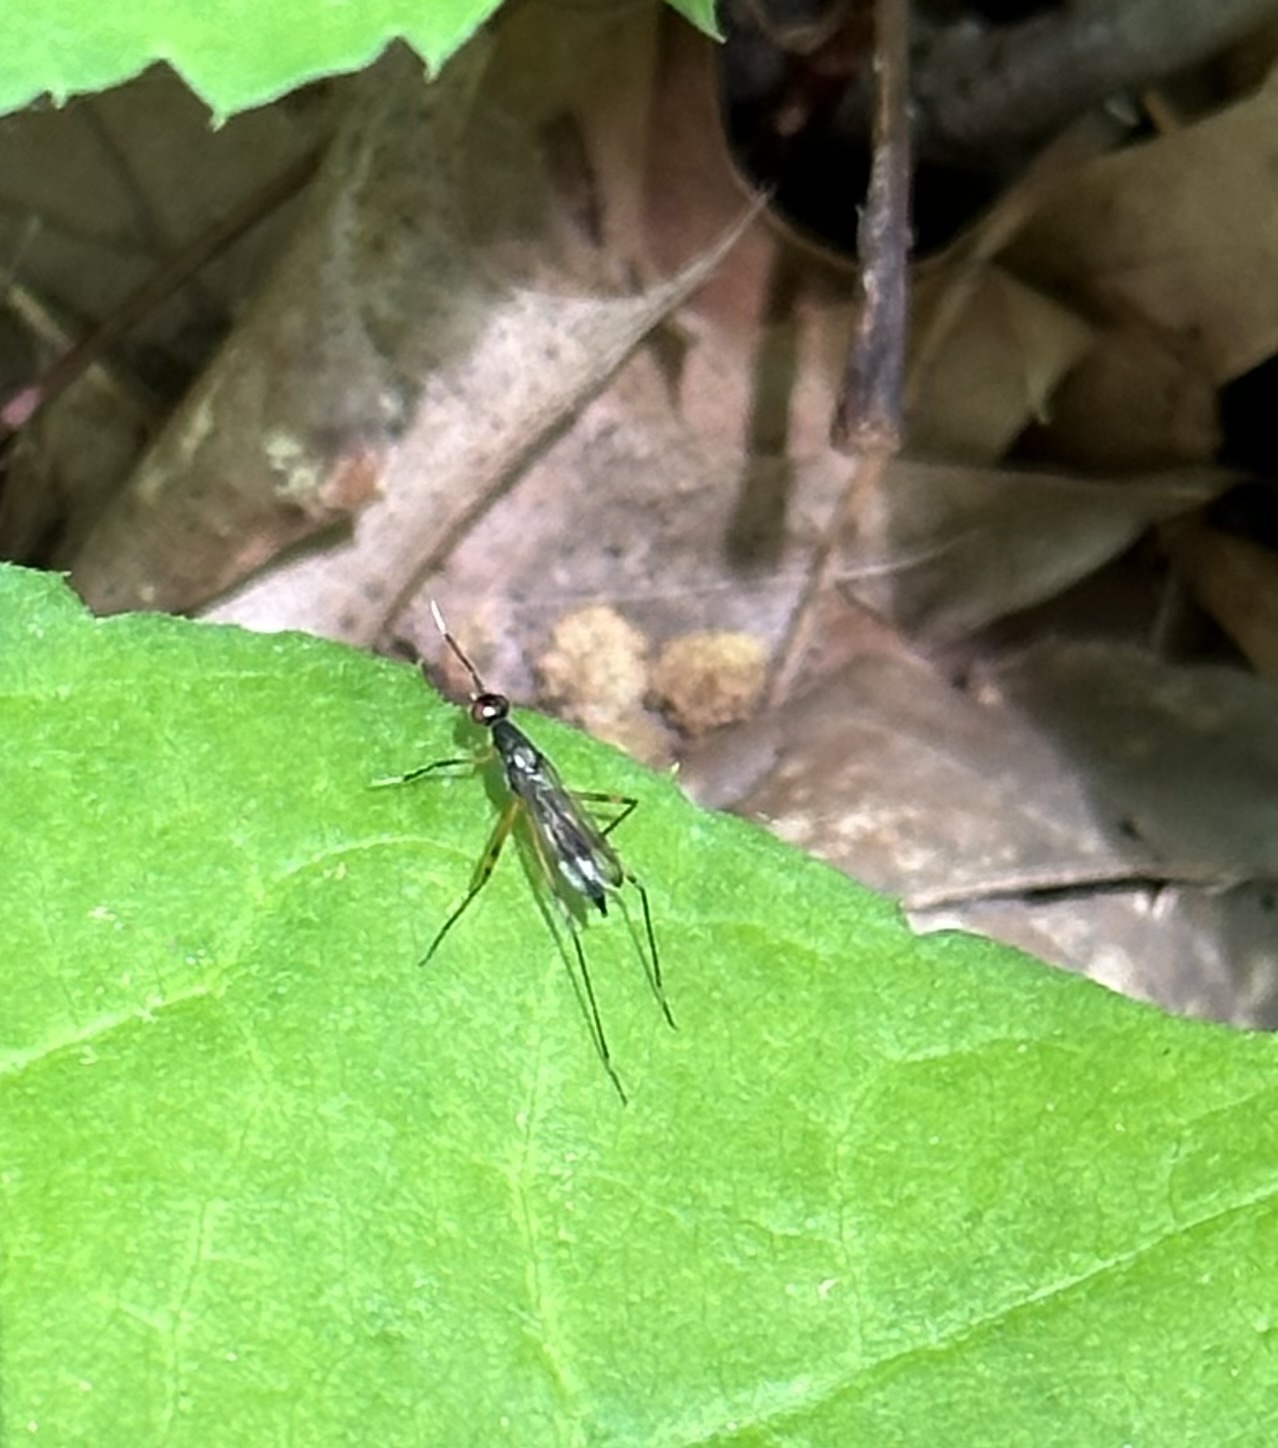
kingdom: Animalia
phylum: Arthropoda
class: Insecta
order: Diptera
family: Micropezidae
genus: Rainieria
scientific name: Rainieria antennaepes
